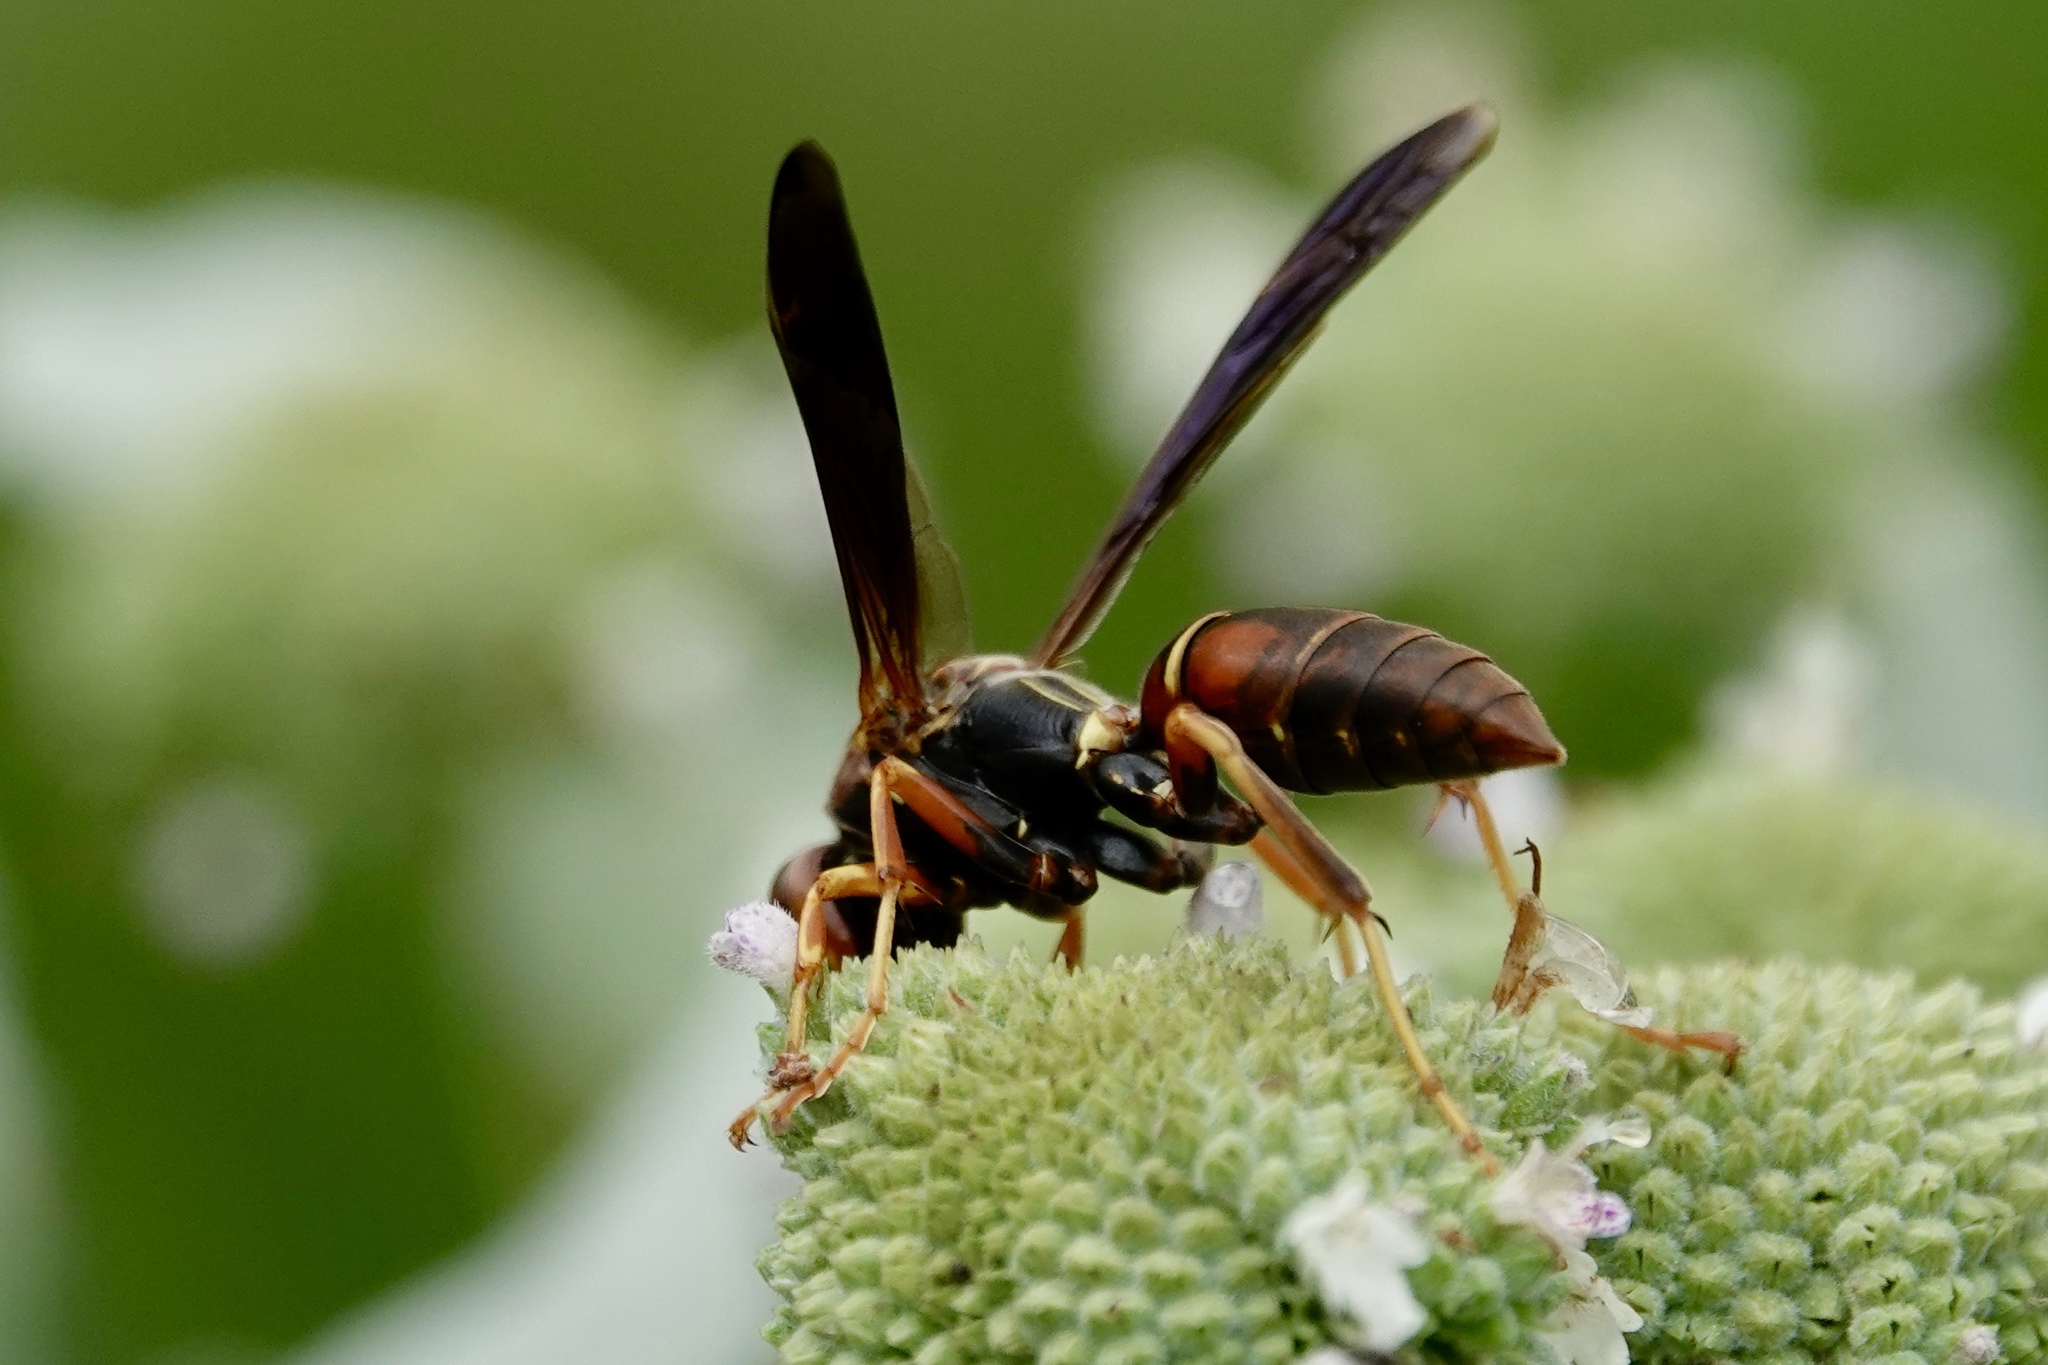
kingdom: Animalia
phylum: Arthropoda
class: Insecta
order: Hymenoptera
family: Eumenidae
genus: Polistes
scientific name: Polistes fuscatus
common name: Dark paper wasp
